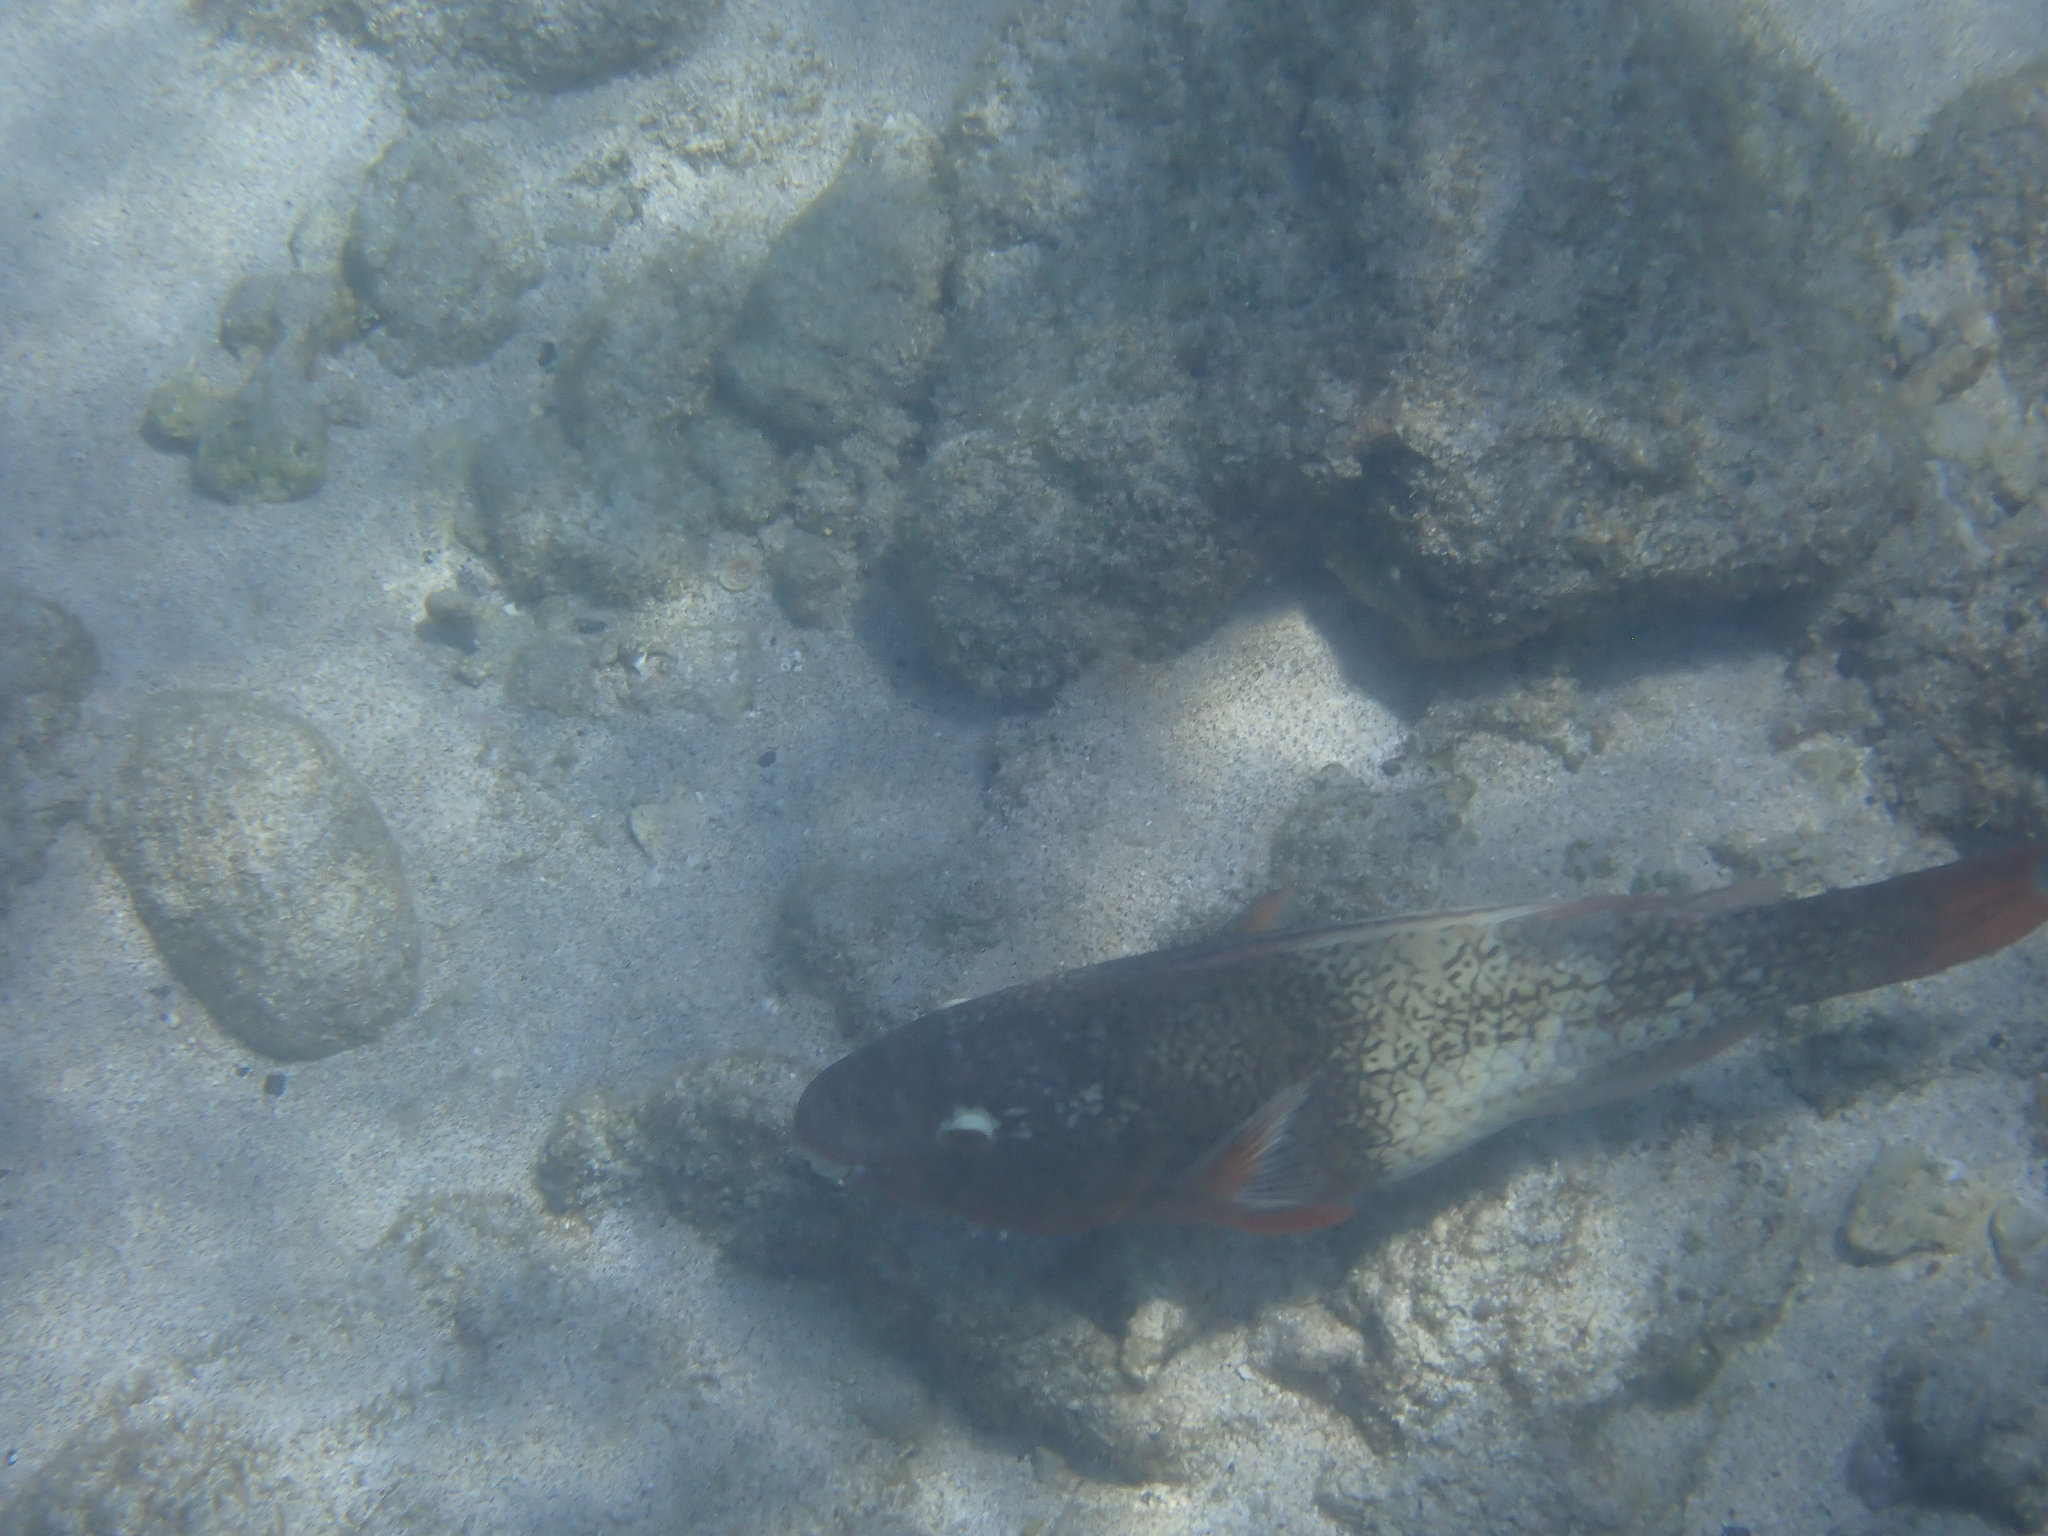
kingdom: Animalia
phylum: Chordata
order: Perciformes
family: Scaridae
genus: Scarus
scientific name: Scarus rubroviolaceus
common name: Ember parrotfish
